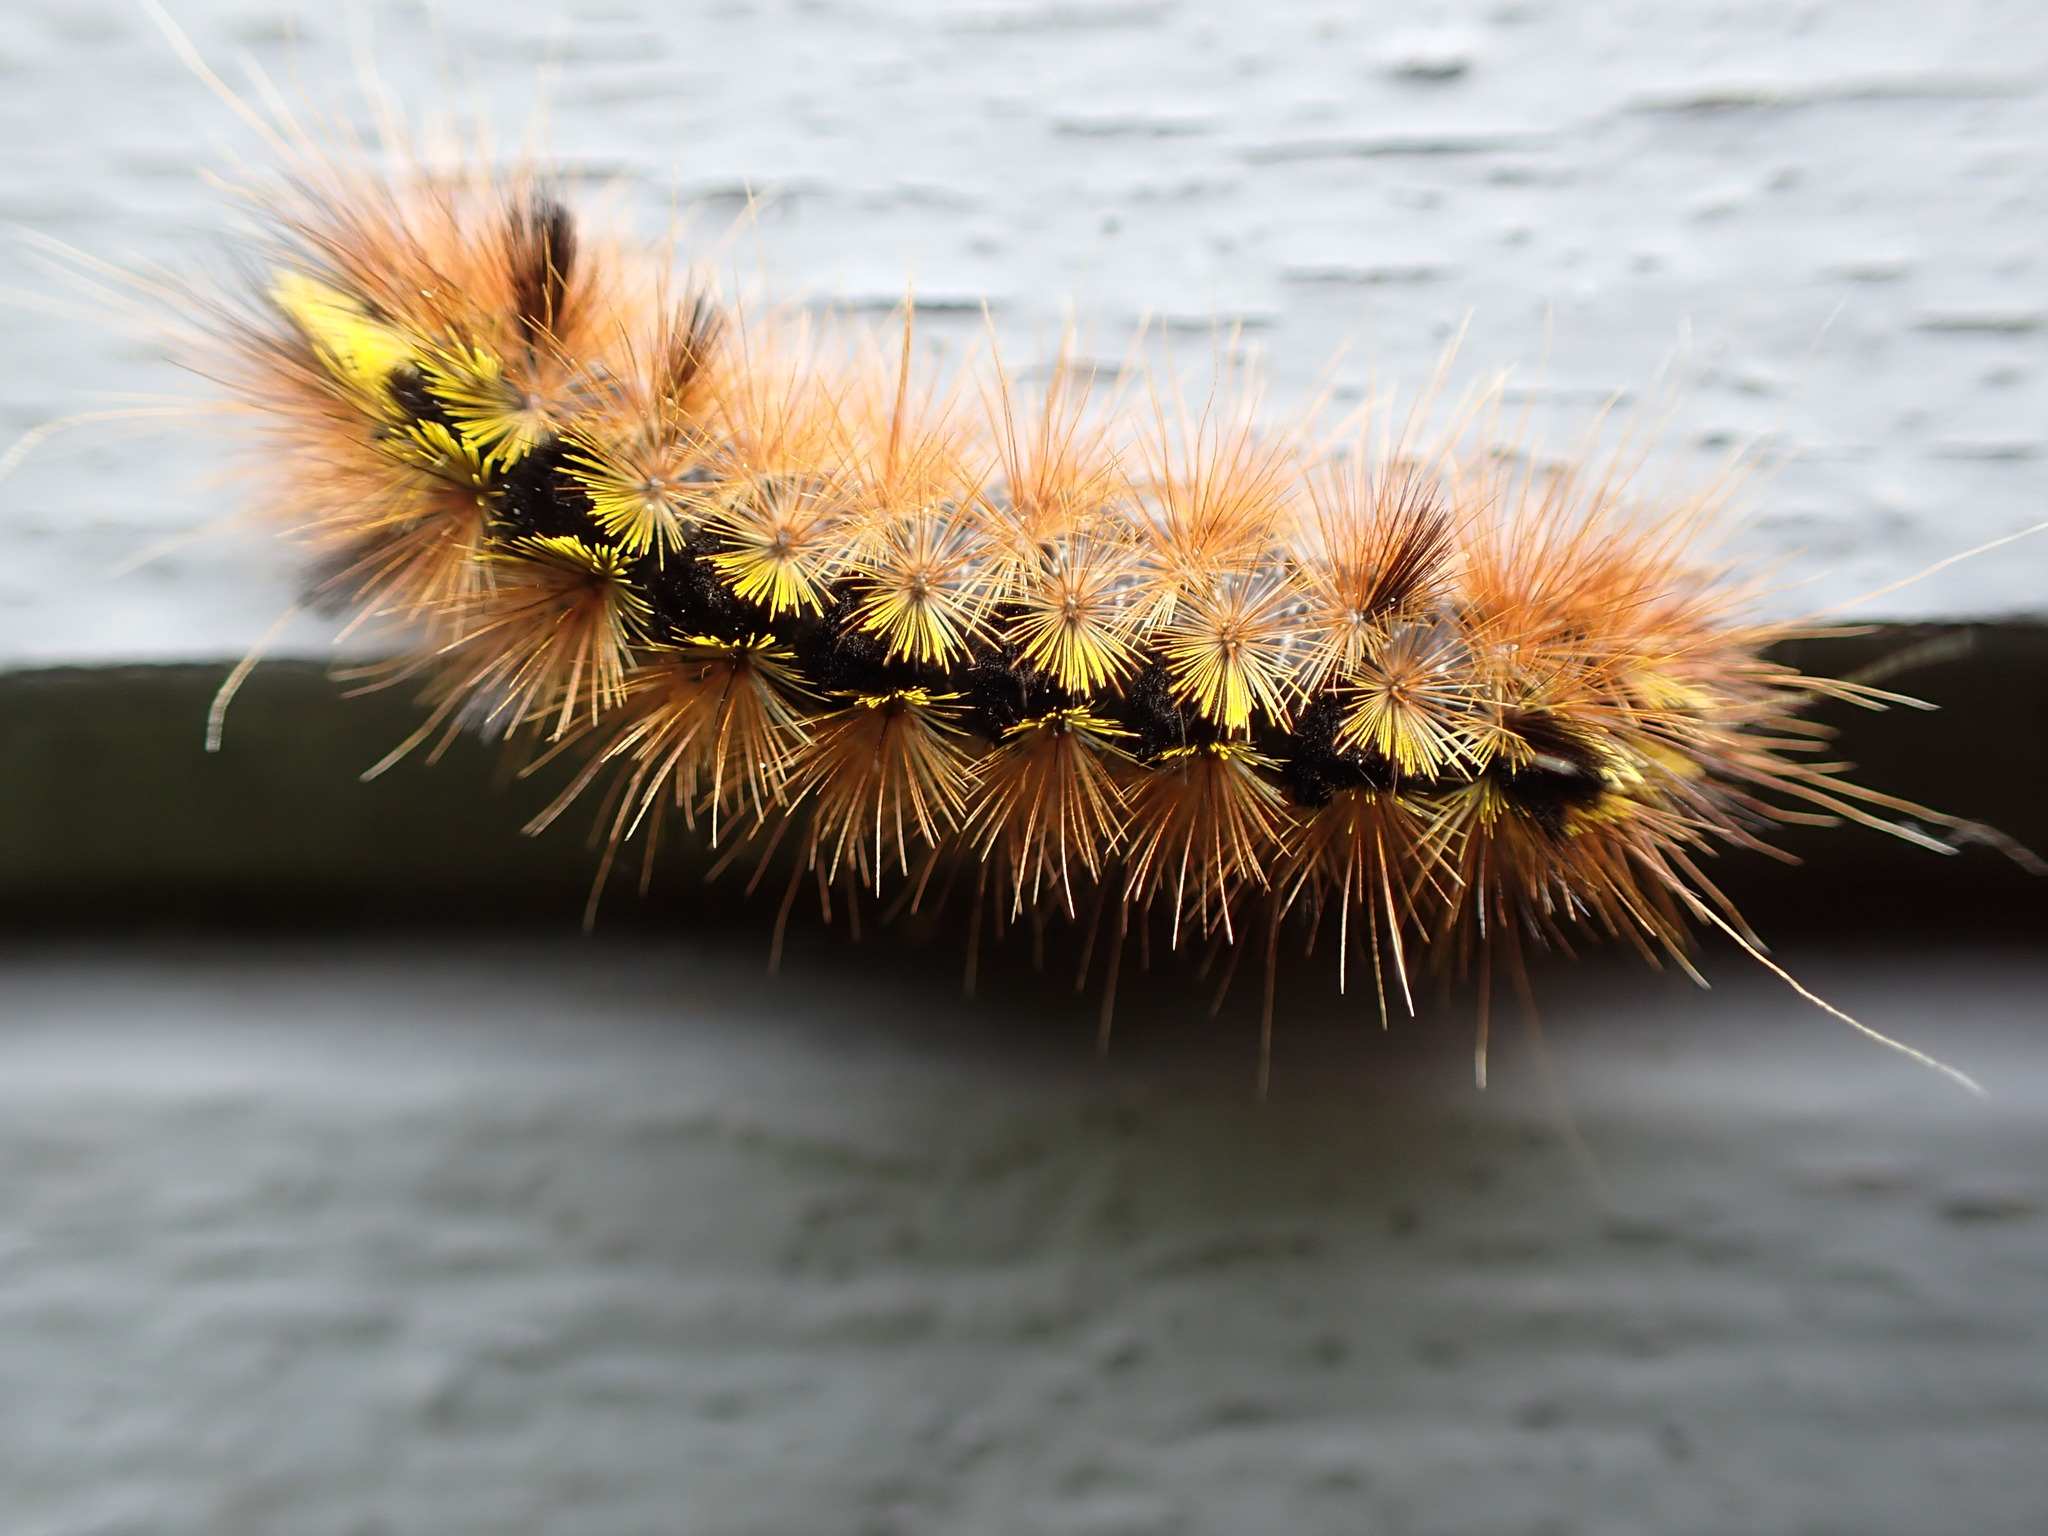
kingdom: Animalia
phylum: Arthropoda
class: Insecta
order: Lepidoptera
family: Erebidae
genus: Lophocampa
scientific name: Lophocampa argentata
